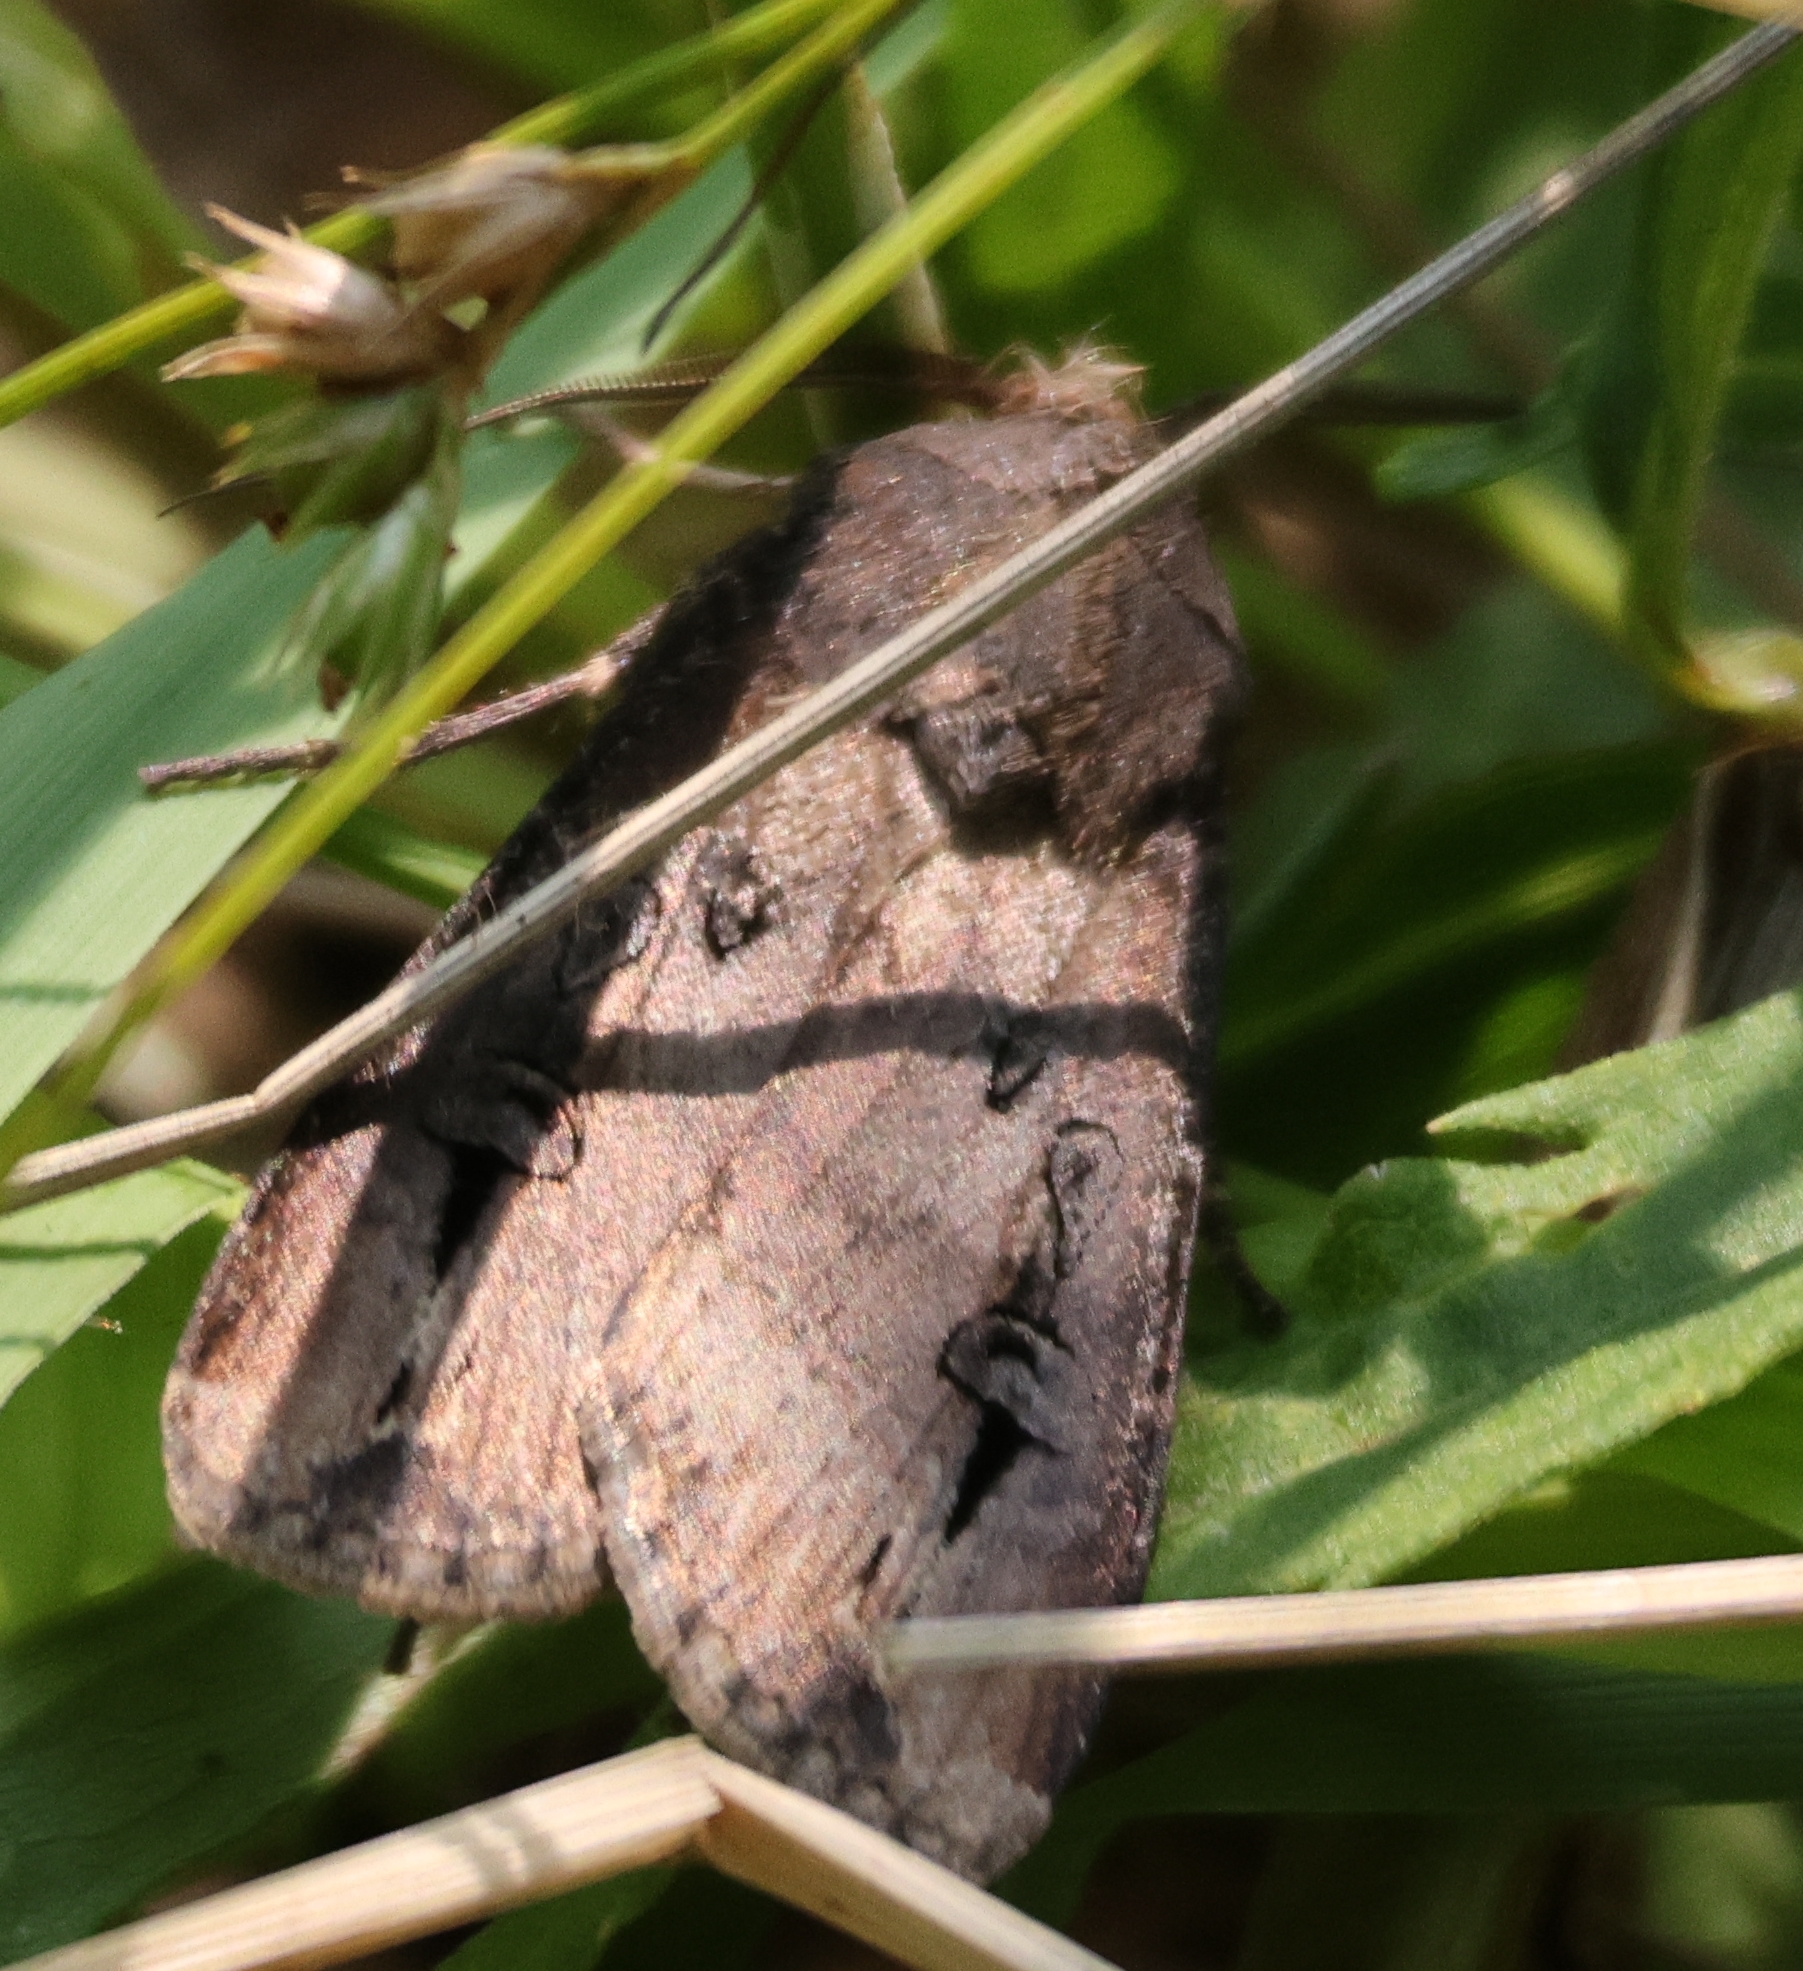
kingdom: Animalia
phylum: Arthropoda
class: Insecta
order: Lepidoptera
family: Noctuidae
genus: Agrotis
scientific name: Agrotis ipsilon
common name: Dark sword-grass
